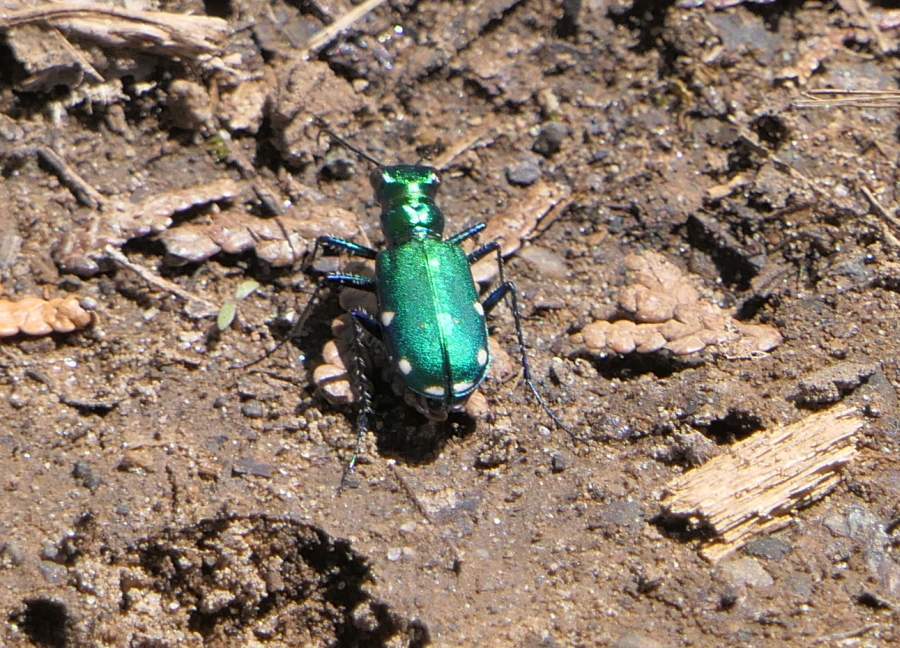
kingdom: Animalia
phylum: Arthropoda
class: Insecta
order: Coleoptera
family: Carabidae
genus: Cicindela
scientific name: Cicindela sexguttata
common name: Six-spotted tiger beetle
